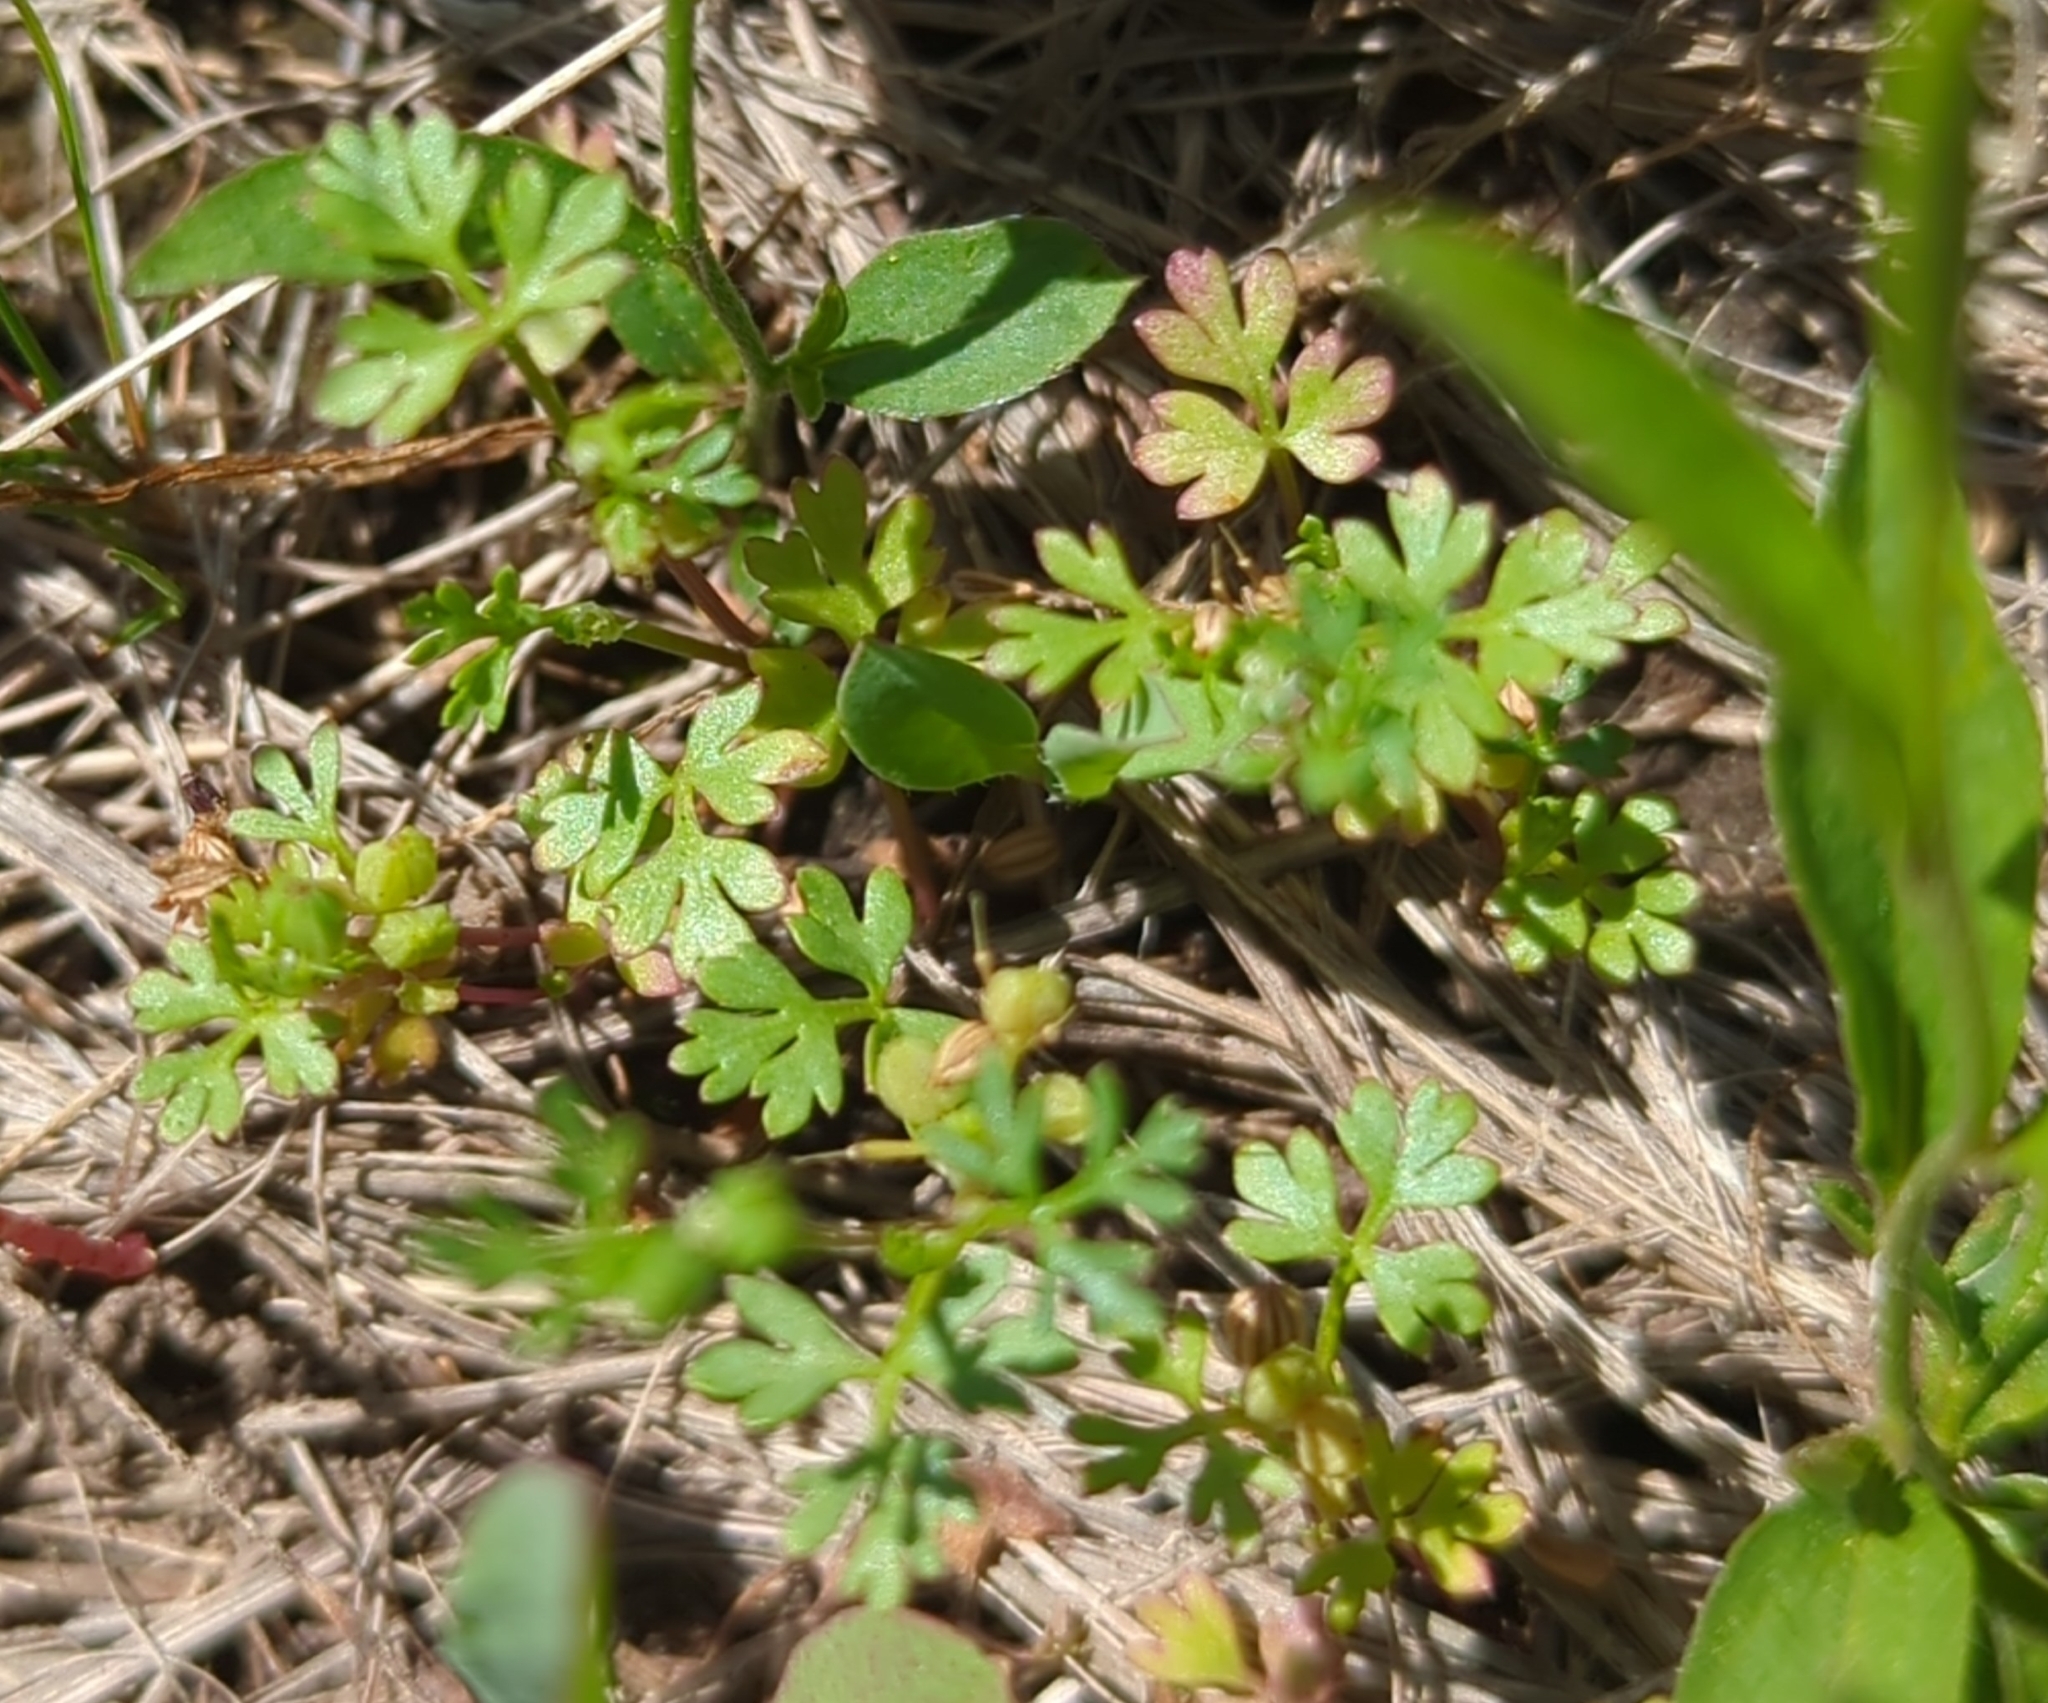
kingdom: Plantae
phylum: Tracheophyta
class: Magnoliopsida
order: Apiales
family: Apiaceae
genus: Chaerophyllum
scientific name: Chaerophyllum tainturieri
